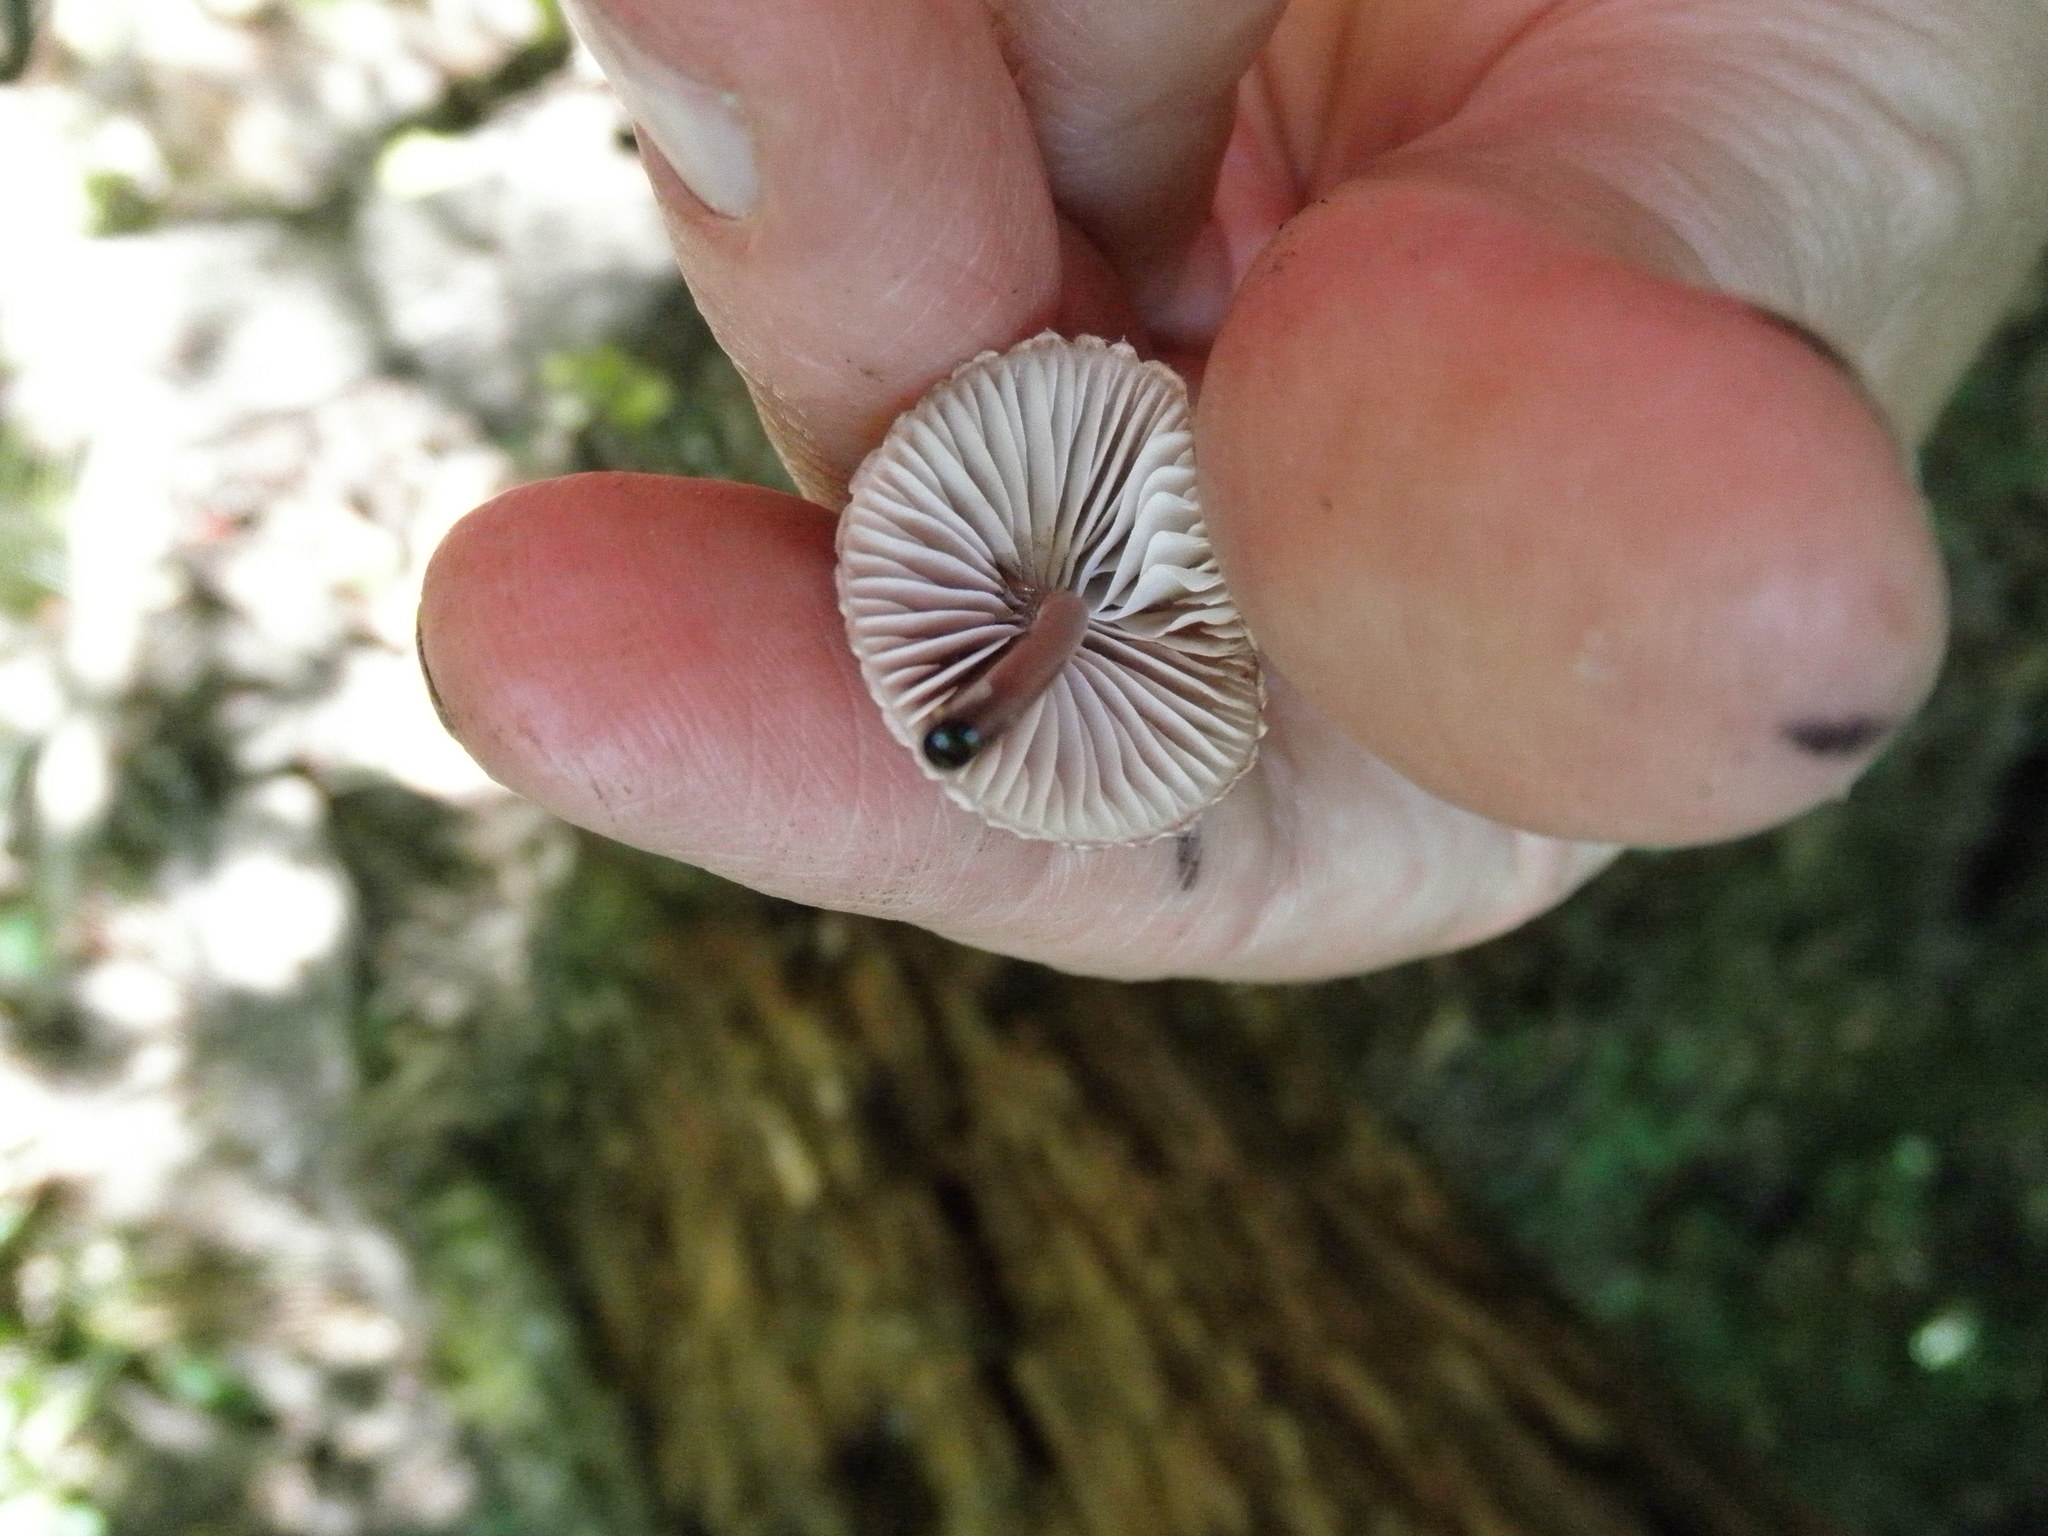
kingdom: Fungi
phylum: Basidiomycota
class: Agaricomycetes
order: Agaricales
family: Mycenaceae
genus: Mycena
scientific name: Mycena haematopus
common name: Burgundydrop bonnet
